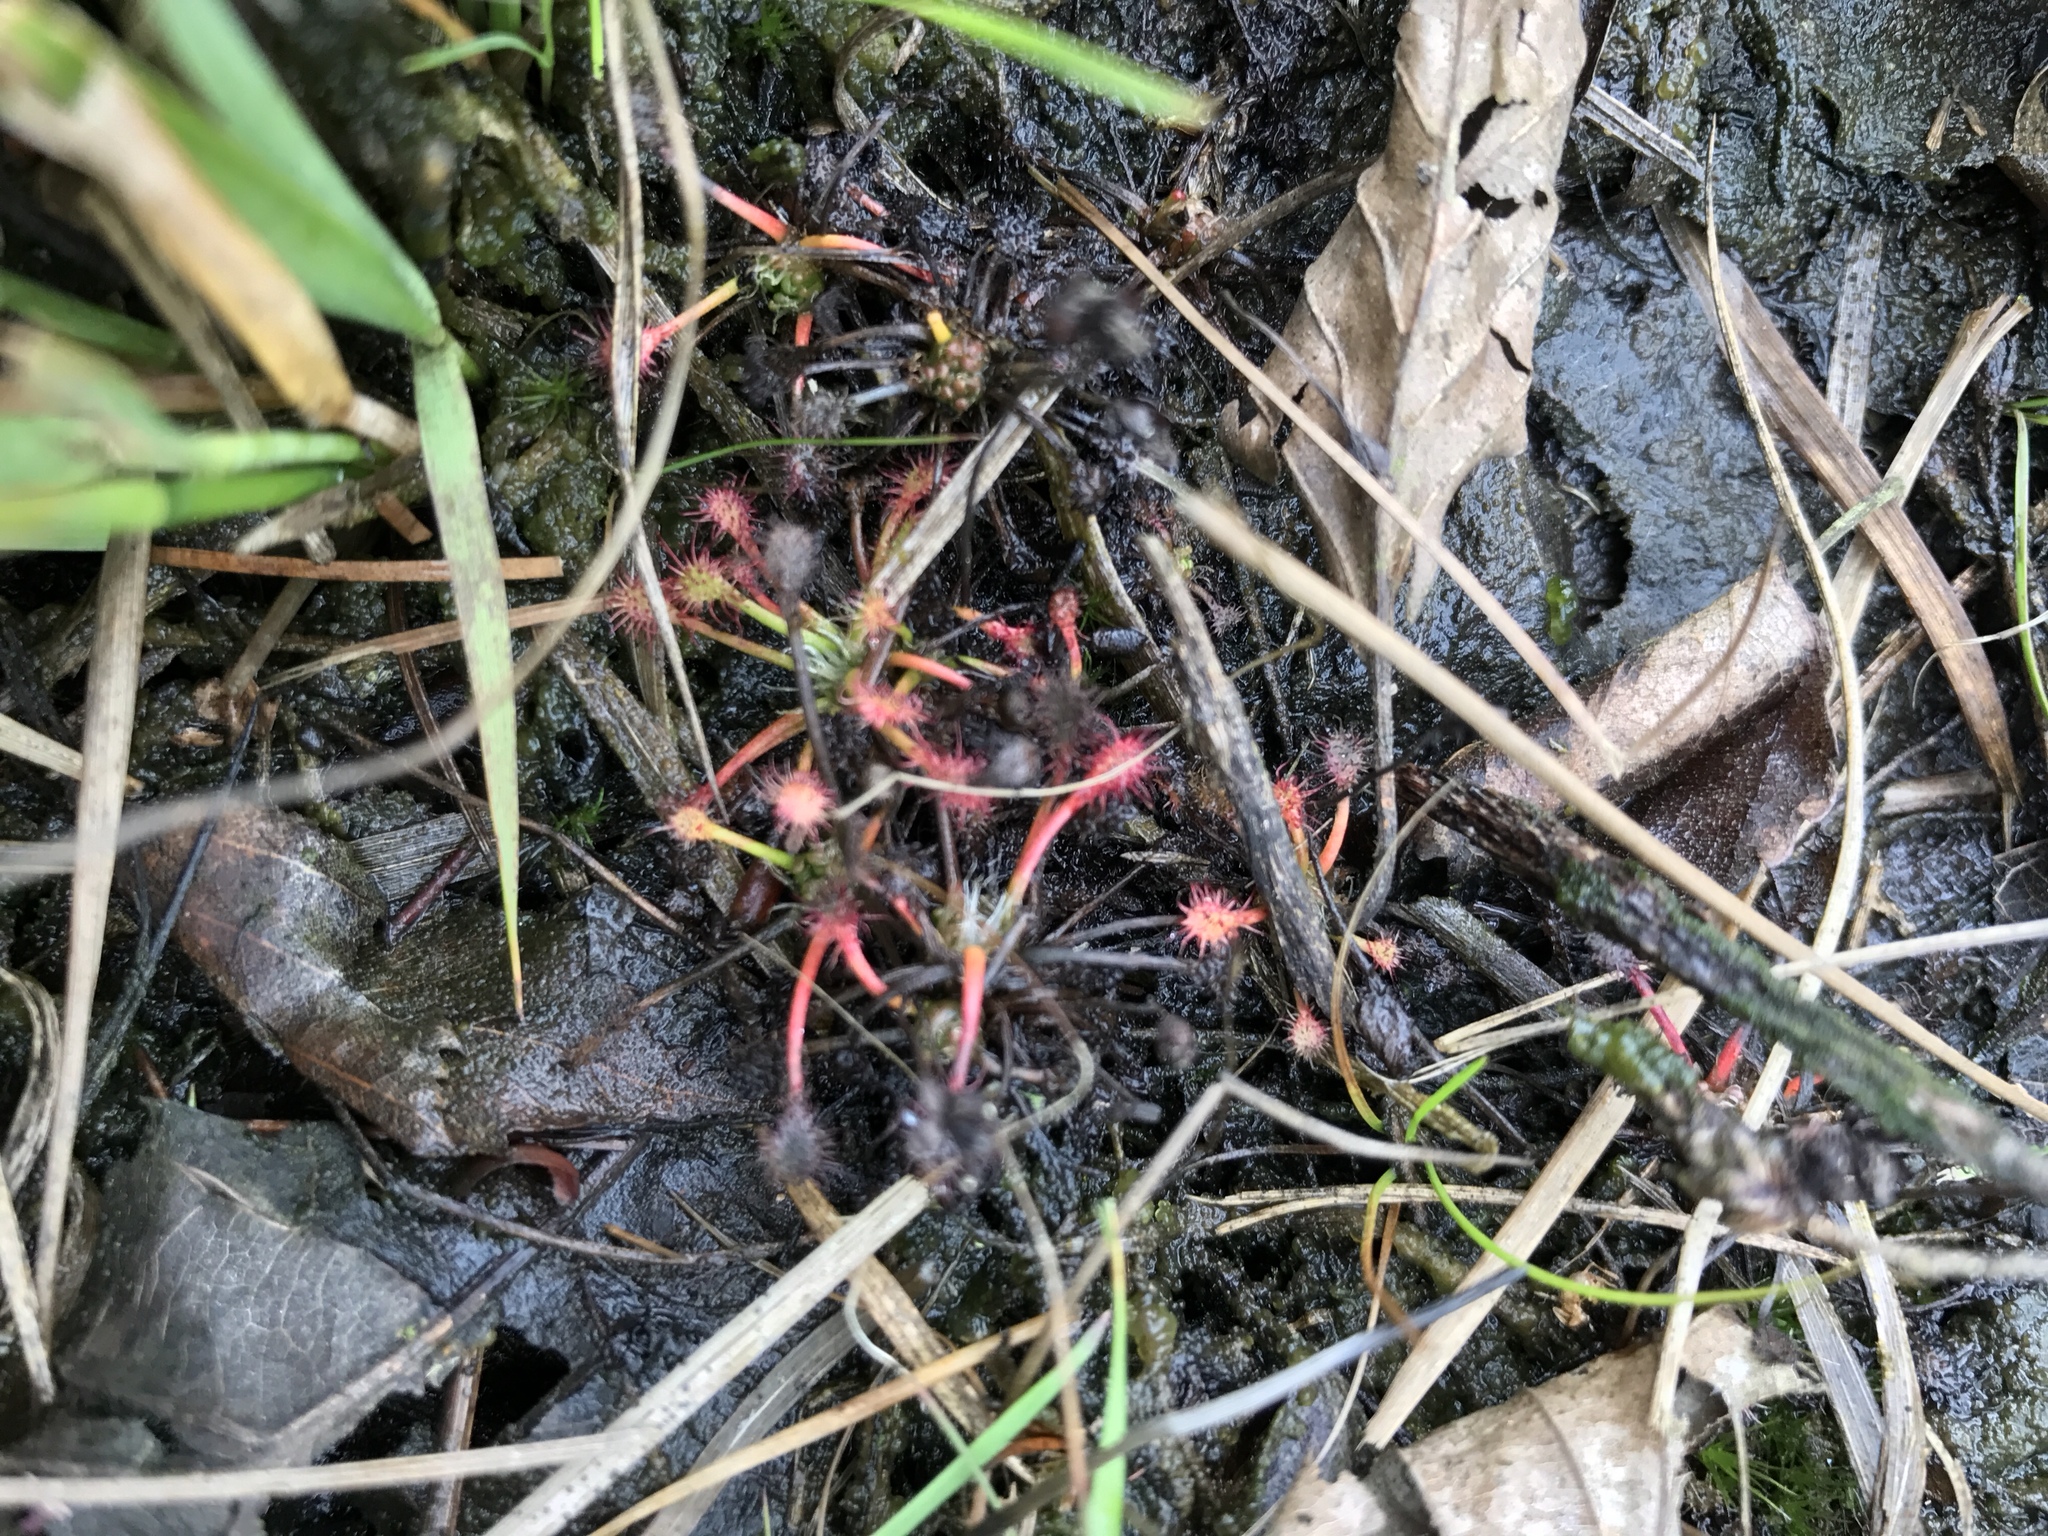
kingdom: Plantae
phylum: Tracheophyta
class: Magnoliopsida
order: Caryophyllales
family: Droseraceae
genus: Drosera
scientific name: Drosera intermedia
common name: Oblong-leaved sundew
